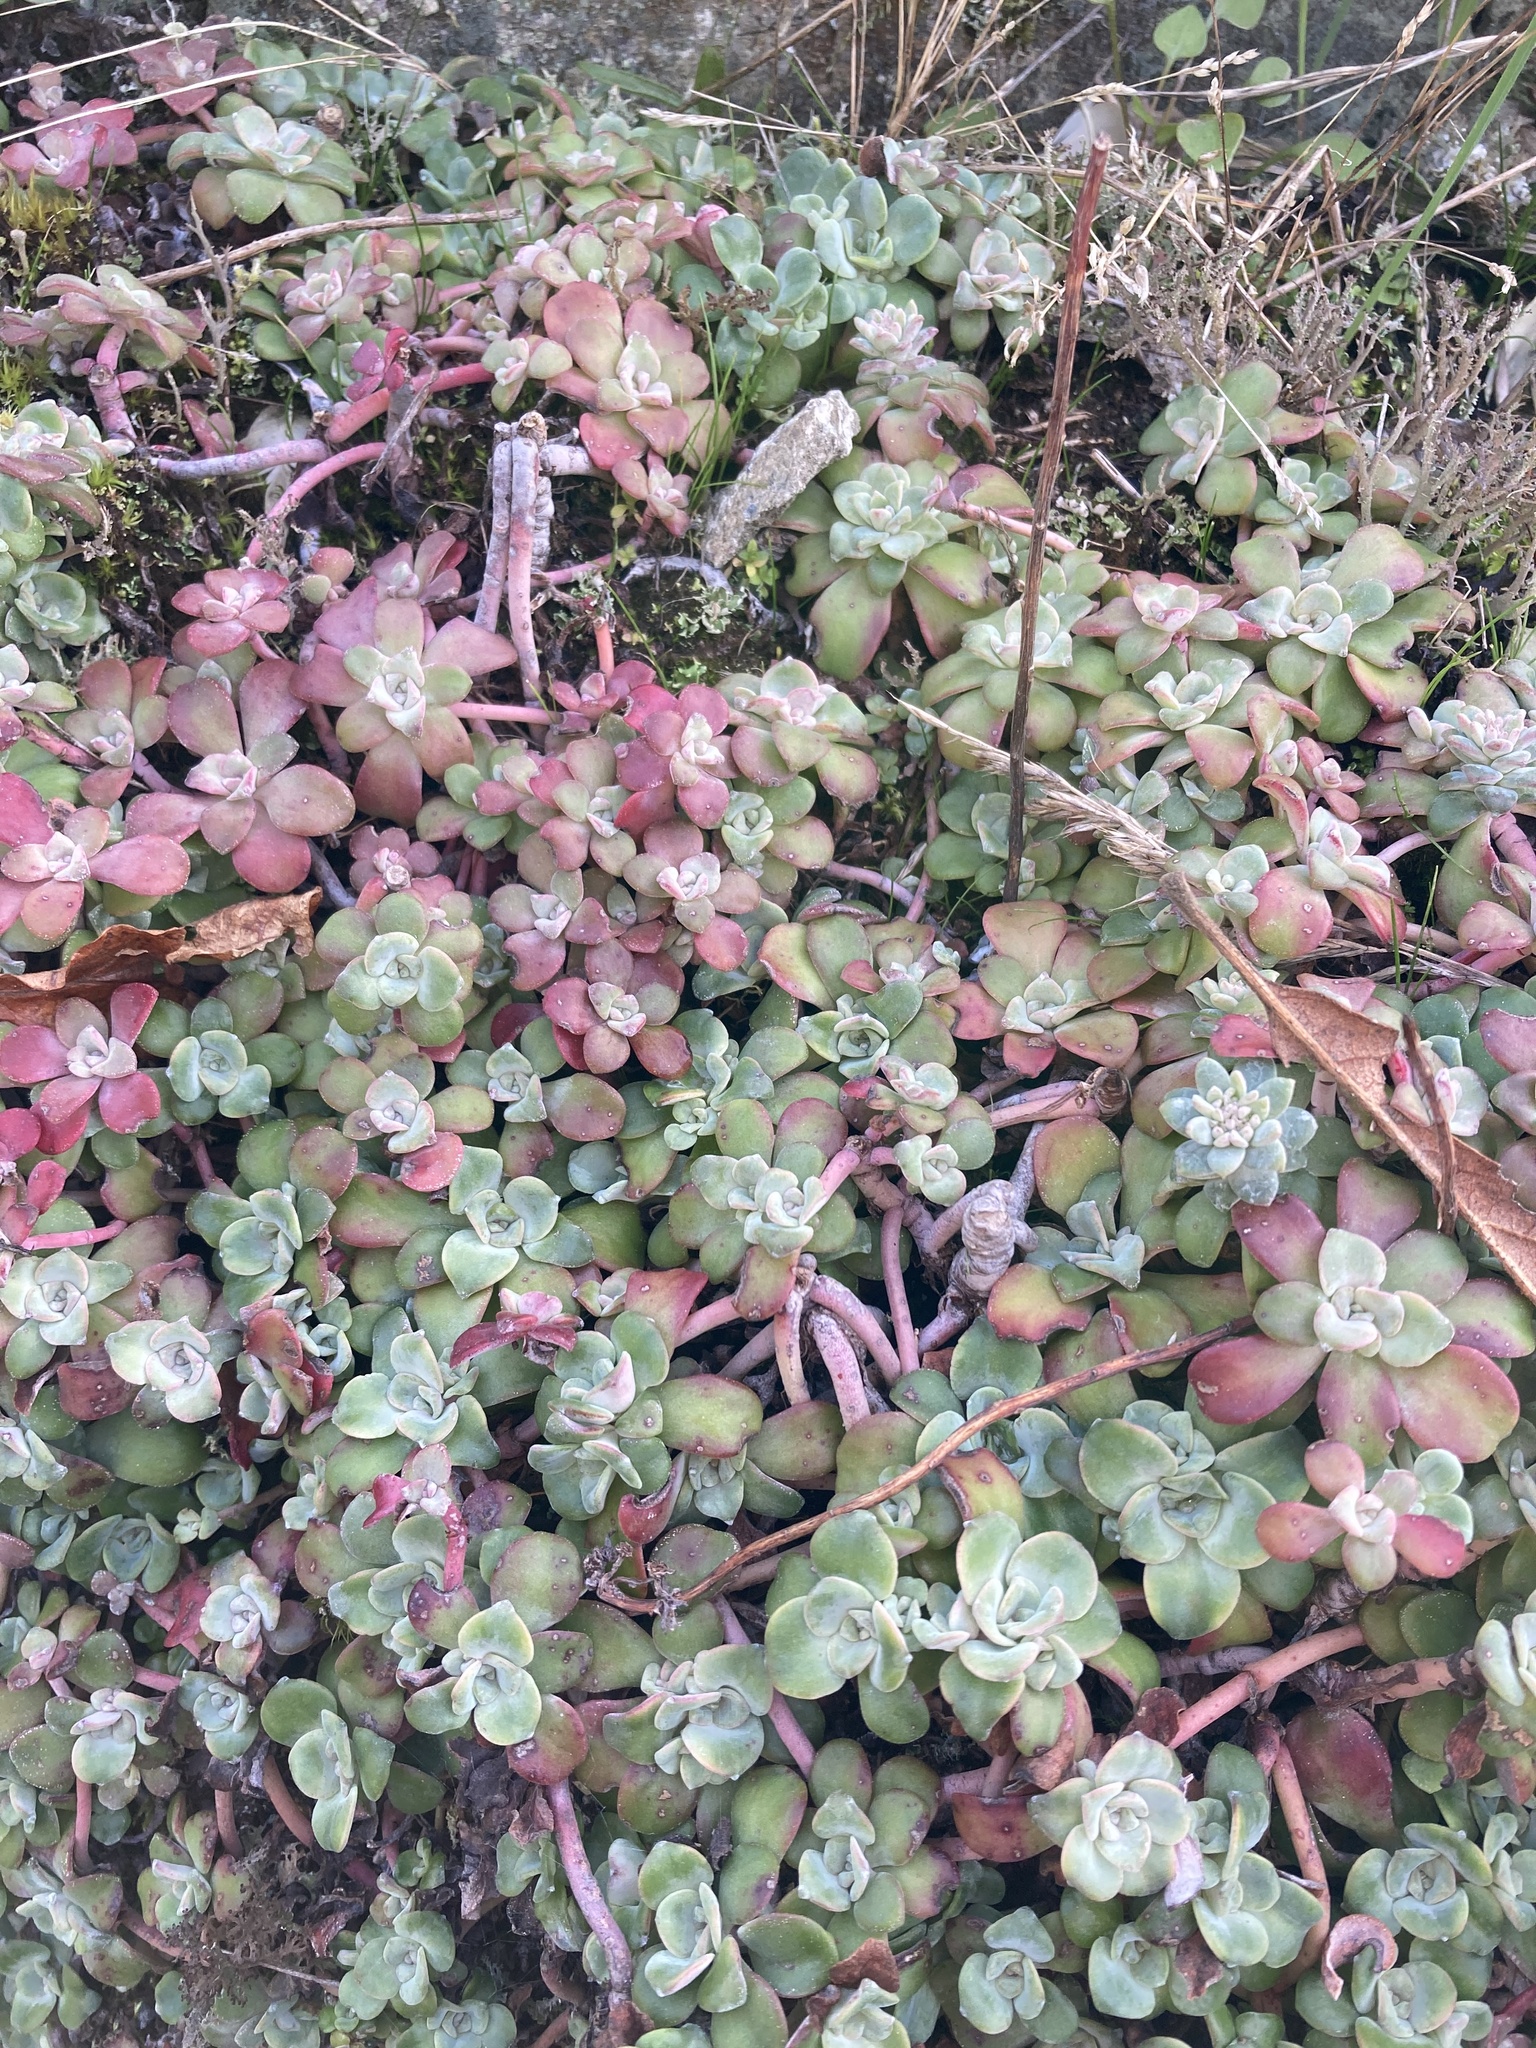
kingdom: Plantae
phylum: Tracheophyta
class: Magnoliopsida
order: Saxifragales
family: Crassulaceae
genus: Sedum
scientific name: Sedum spathulifolium
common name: Colorado stonecrop
